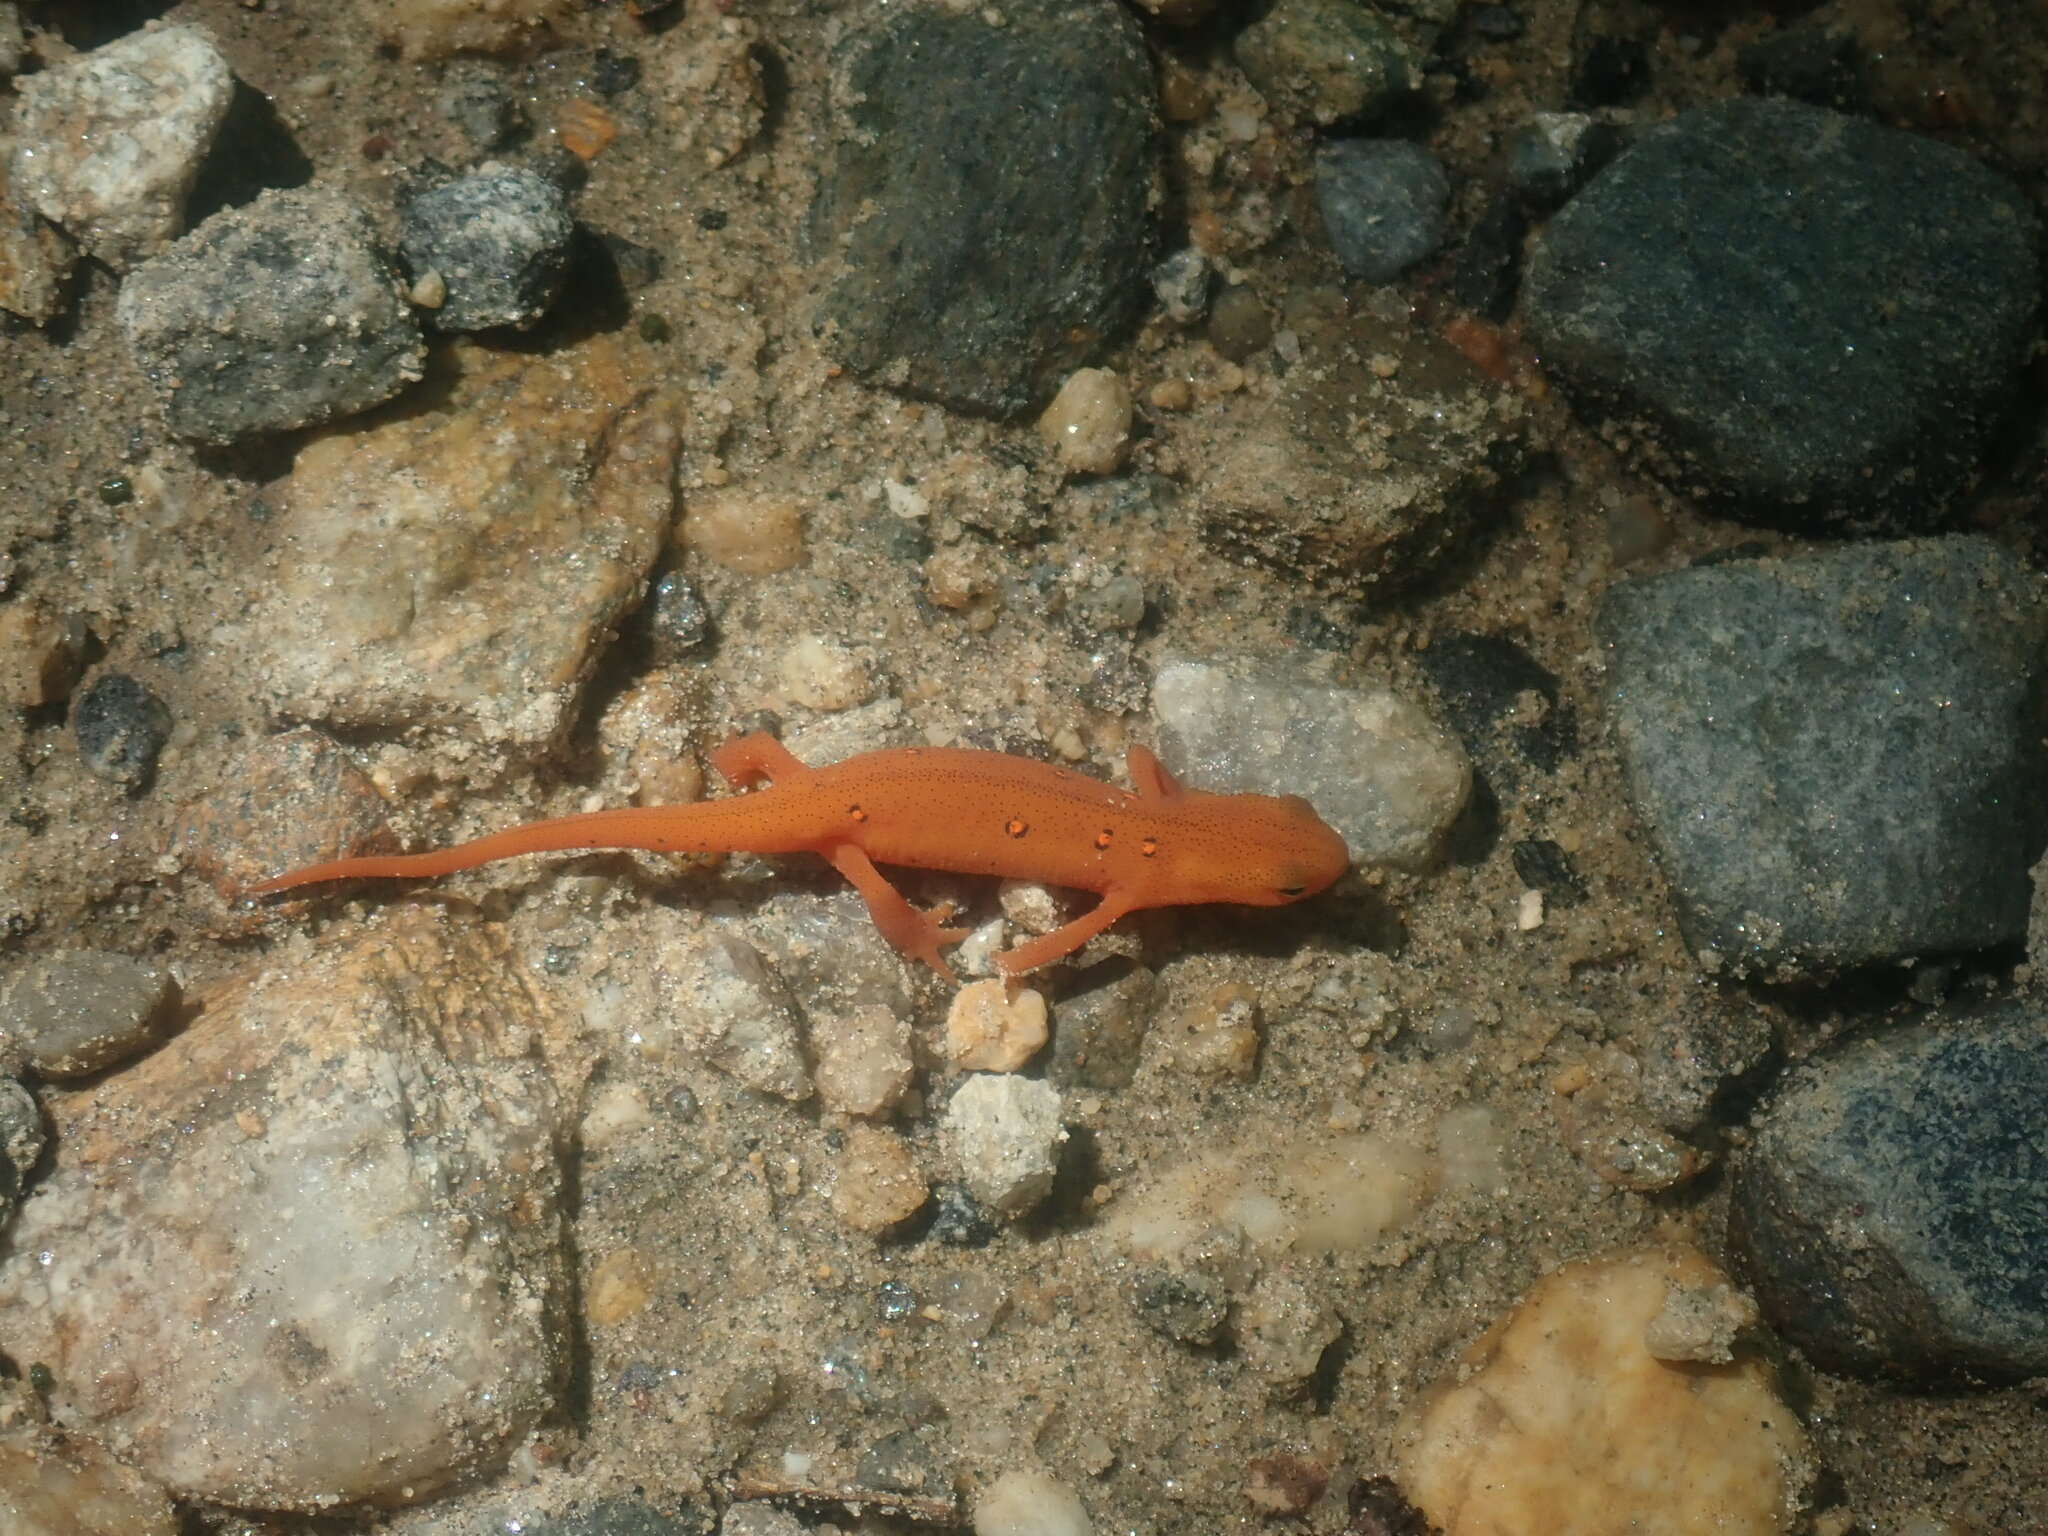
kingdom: Animalia
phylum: Chordata
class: Amphibia
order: Caudata
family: Salamandridae
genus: Notophthalmus
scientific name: Notophthalmus viridescens
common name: Eastern newt
